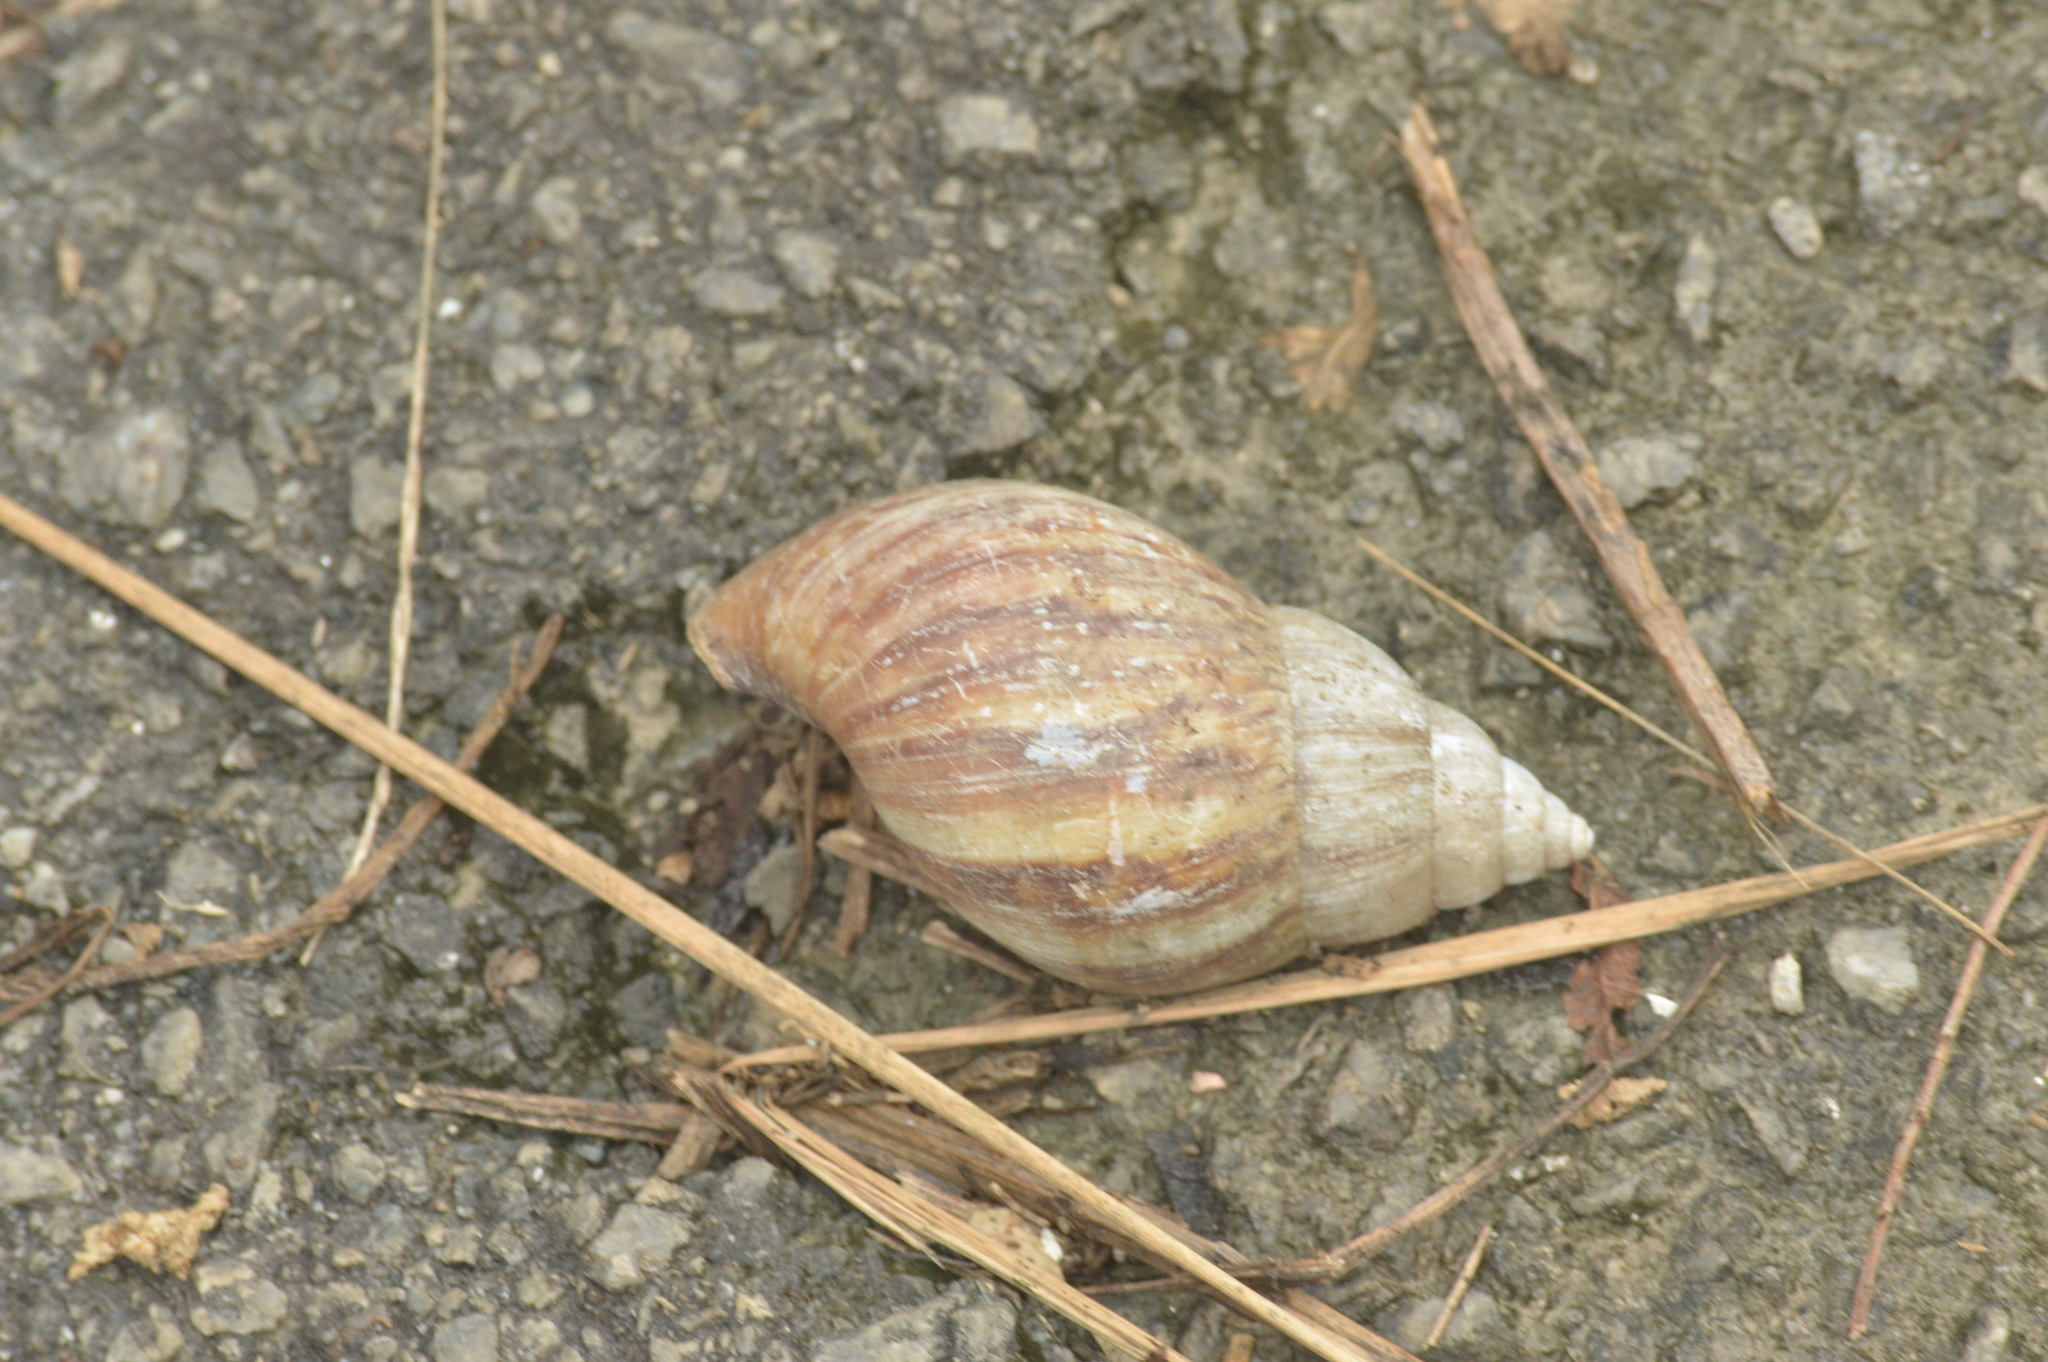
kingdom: Animalia
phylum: Mollusca
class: Gastropoda
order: Stylommatophora
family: Achatinidae
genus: Lissachatina
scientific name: Lissachatina fulica
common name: Giant african snail
